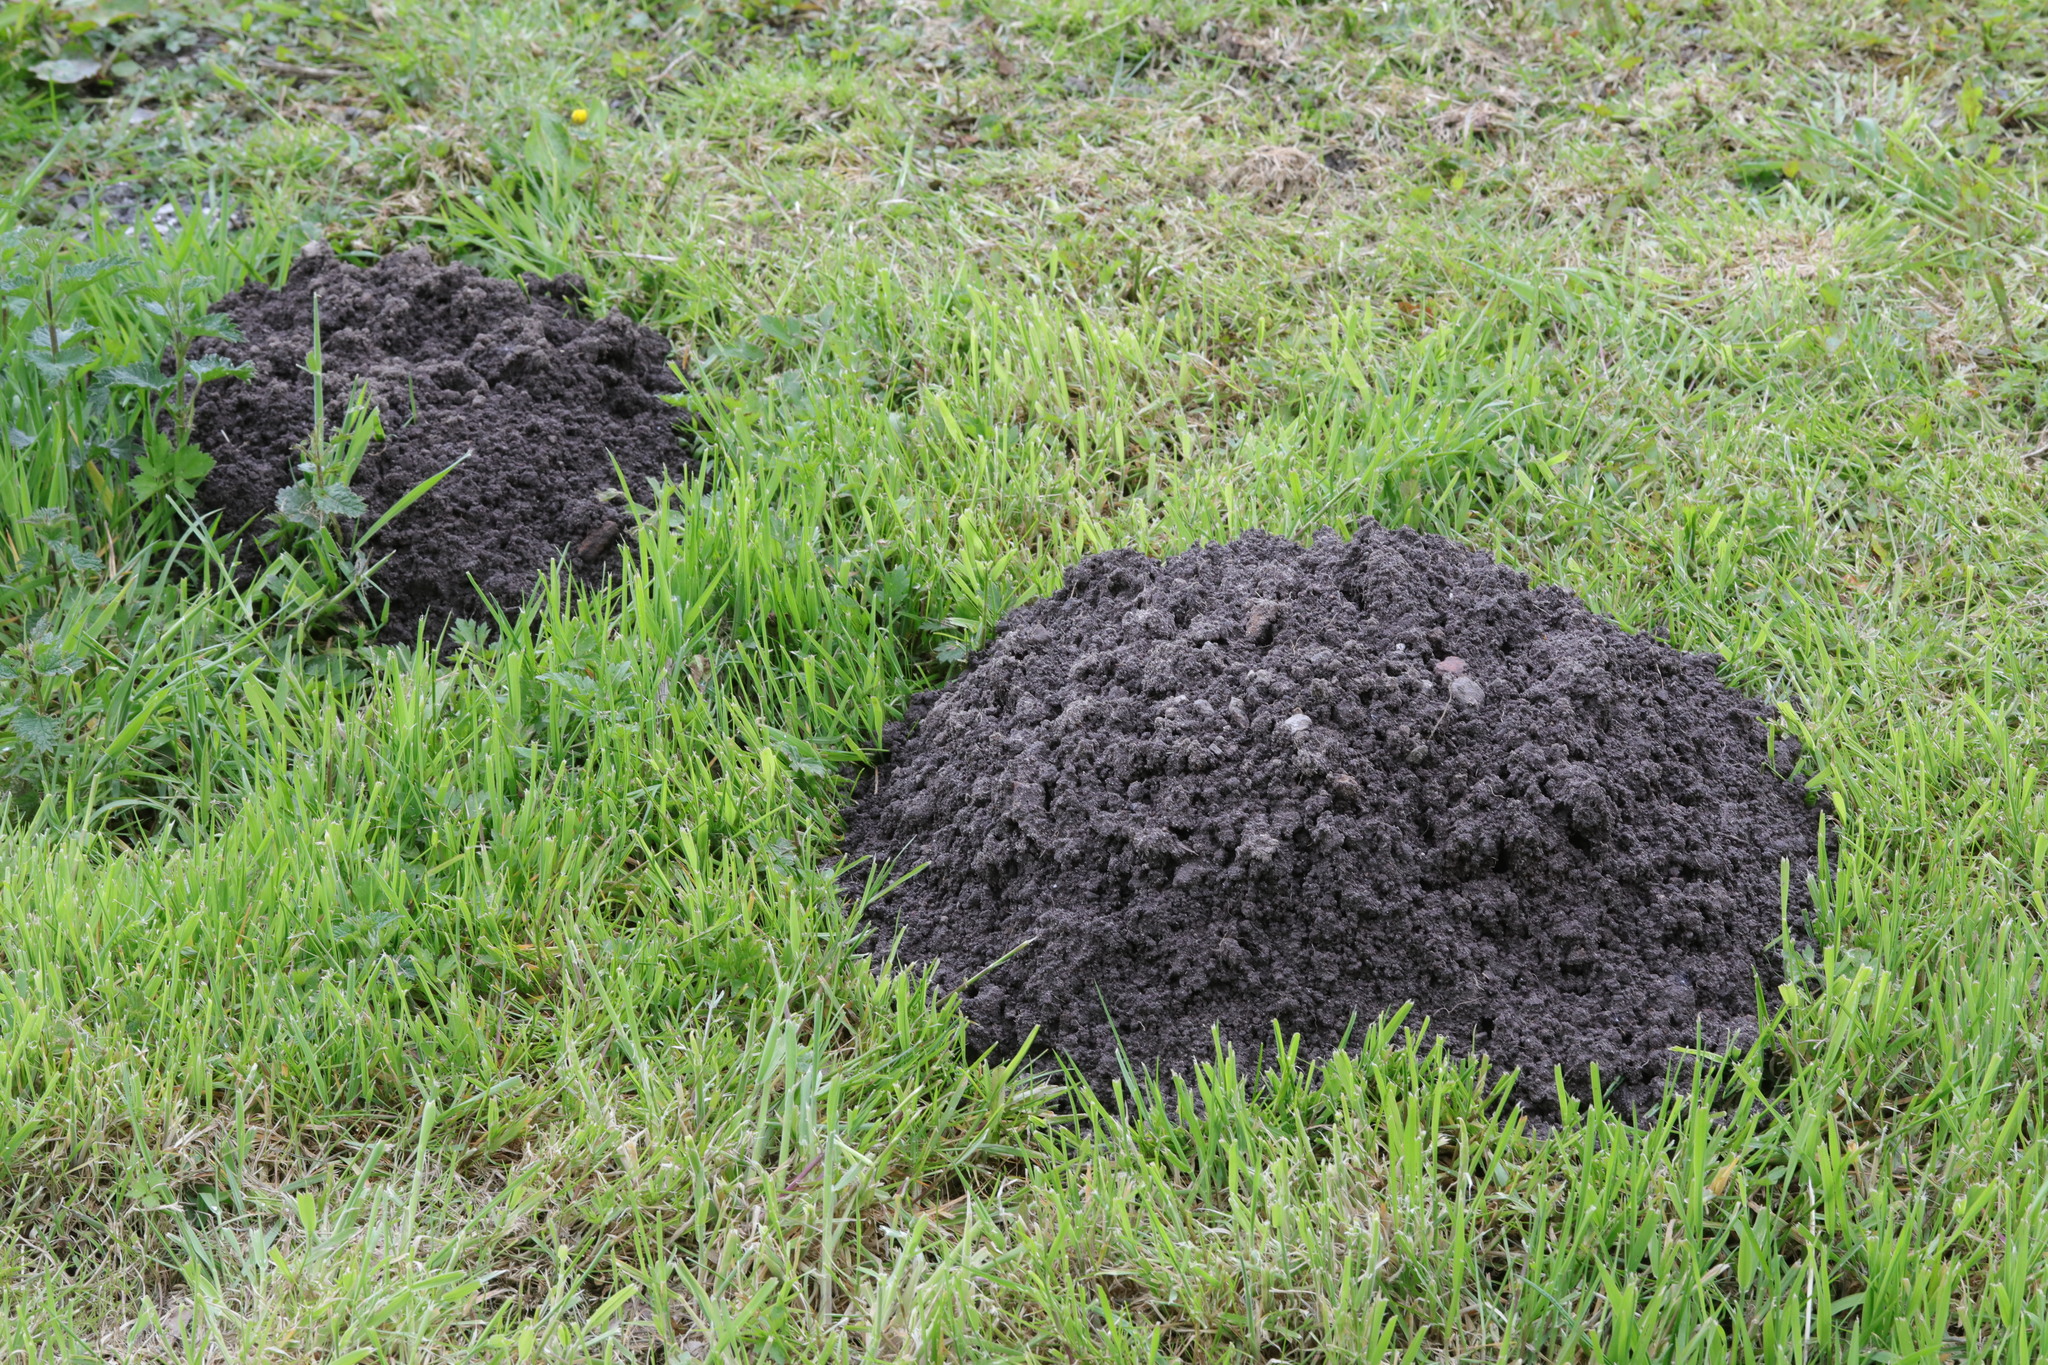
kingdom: Animalia
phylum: Chordata
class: Mammalia
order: Soricomorpha
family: Talpidae
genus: Talpa
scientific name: Talpa europaea
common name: European mole
